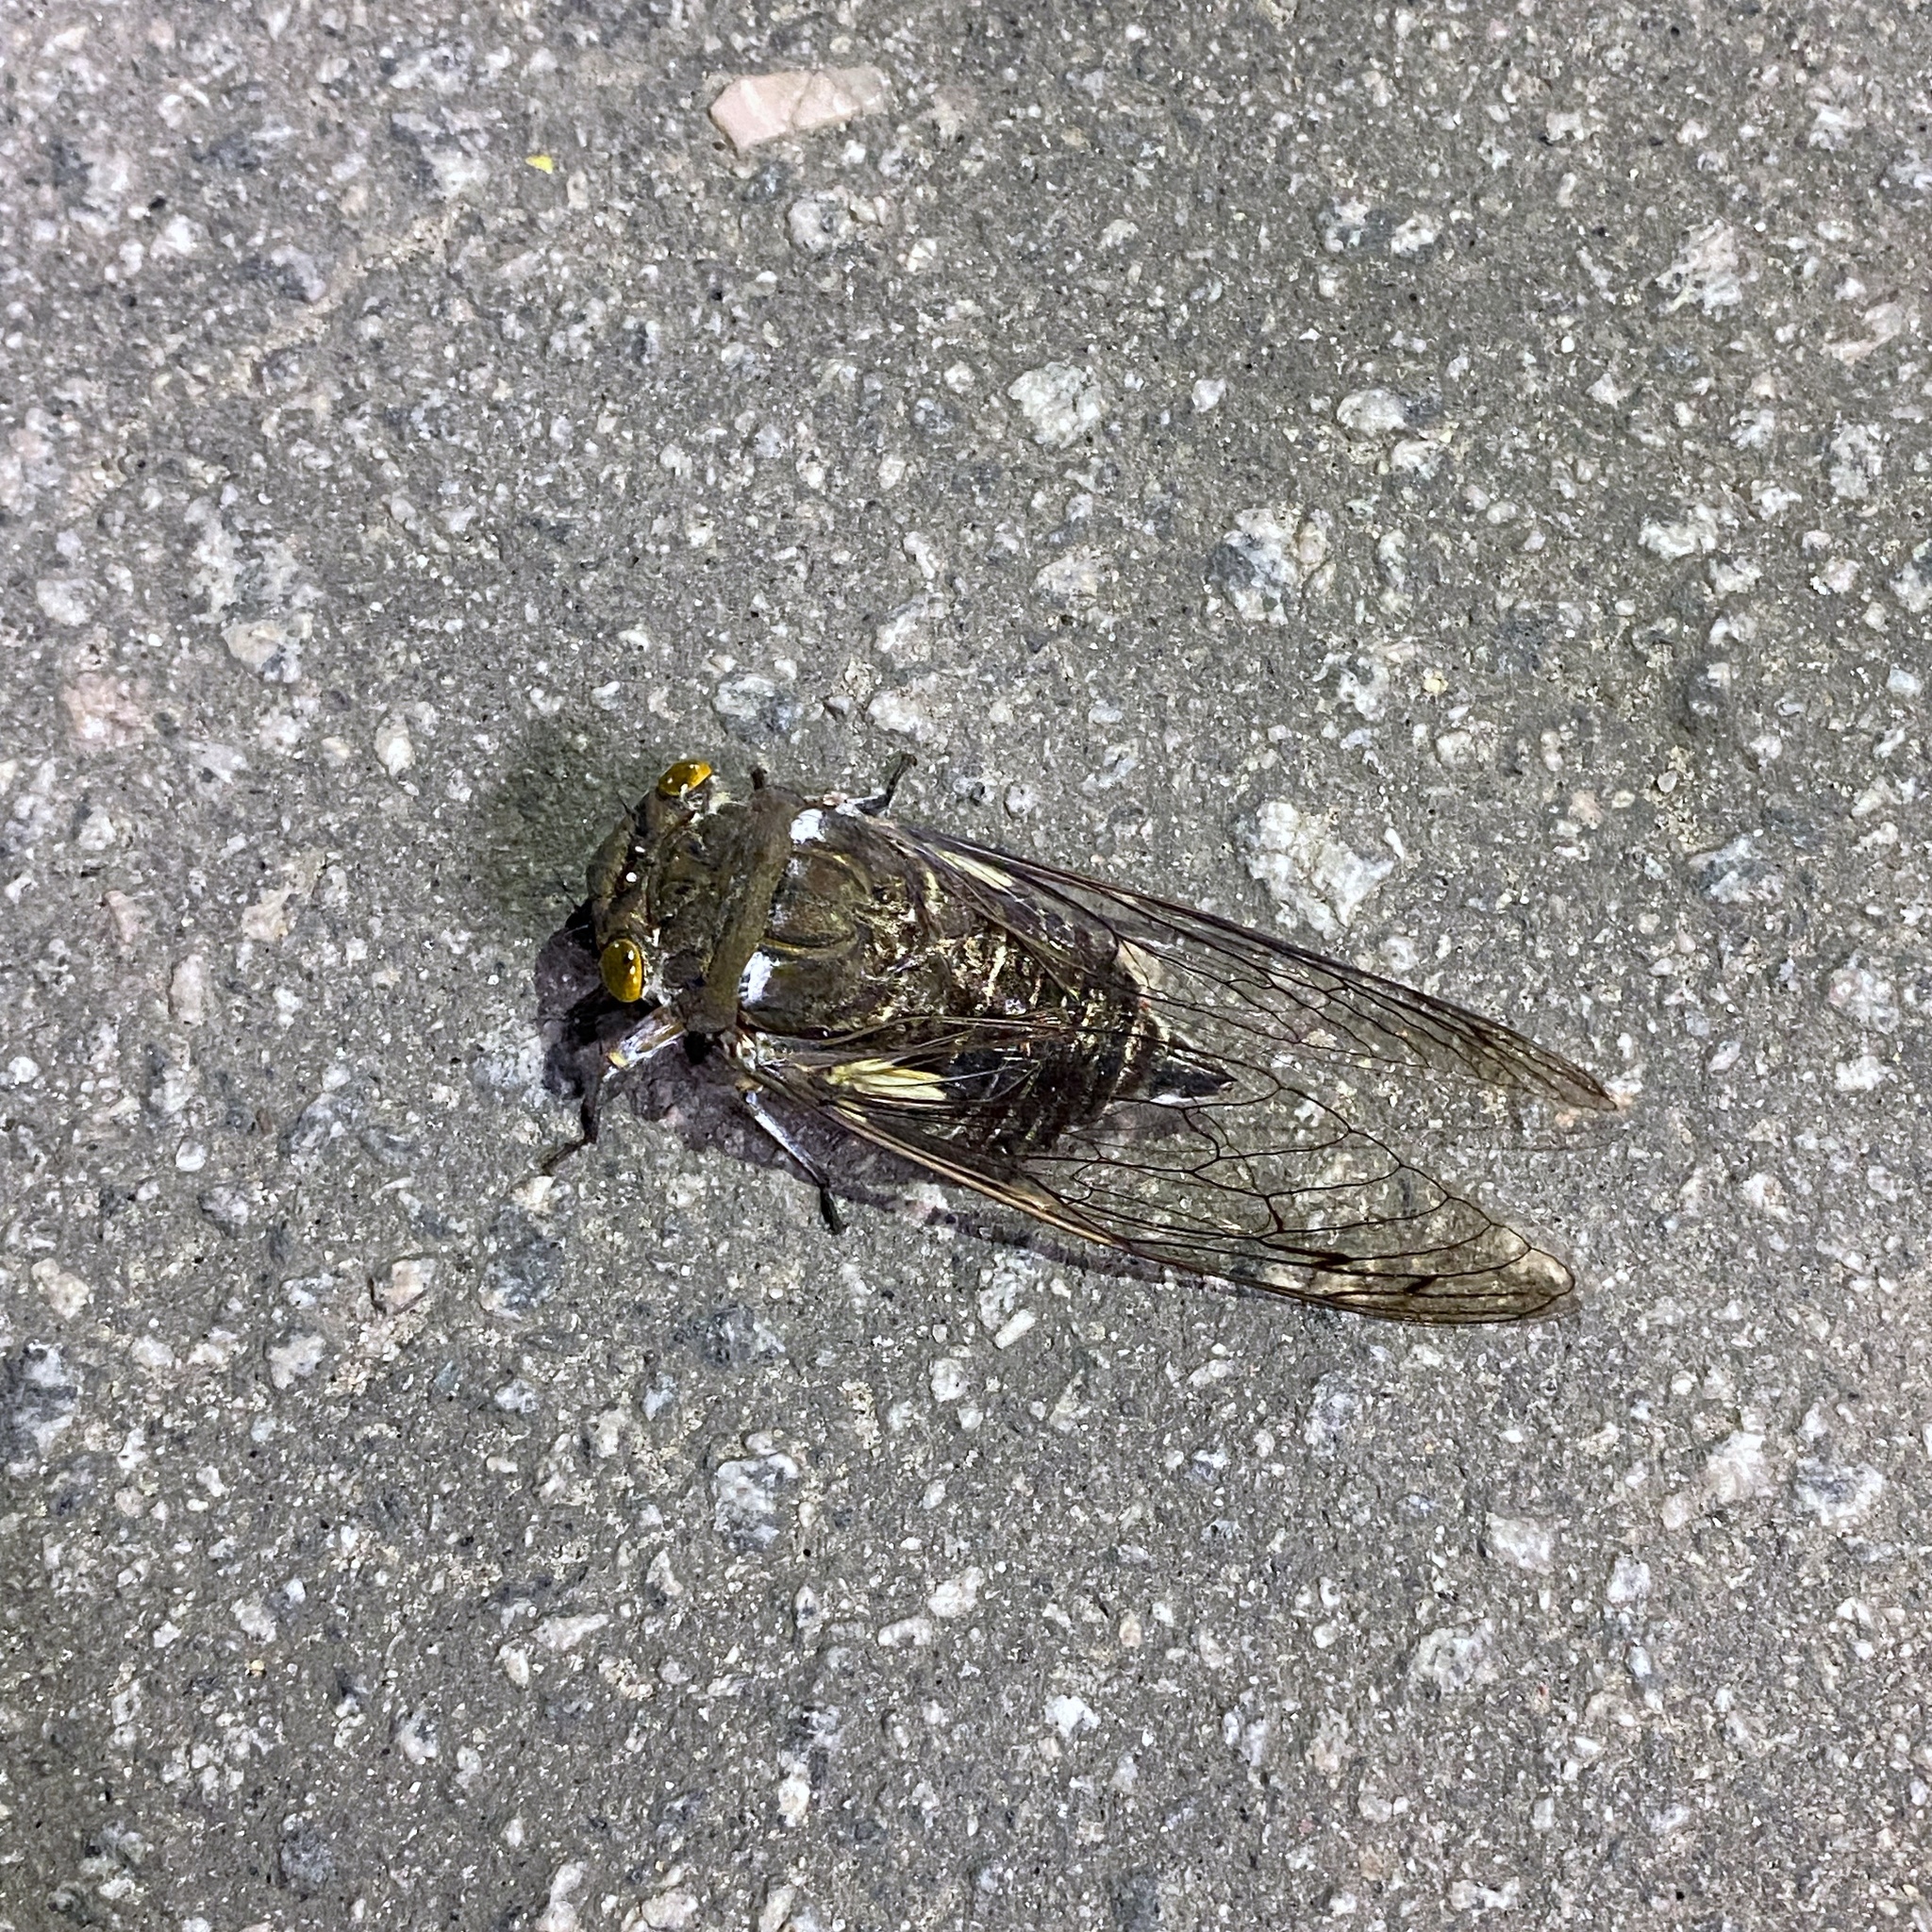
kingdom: Animalia
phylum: Arthropoda
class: Insecta
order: Hemiptera
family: Cicadidae
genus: Quesada
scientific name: Quesada gigas
